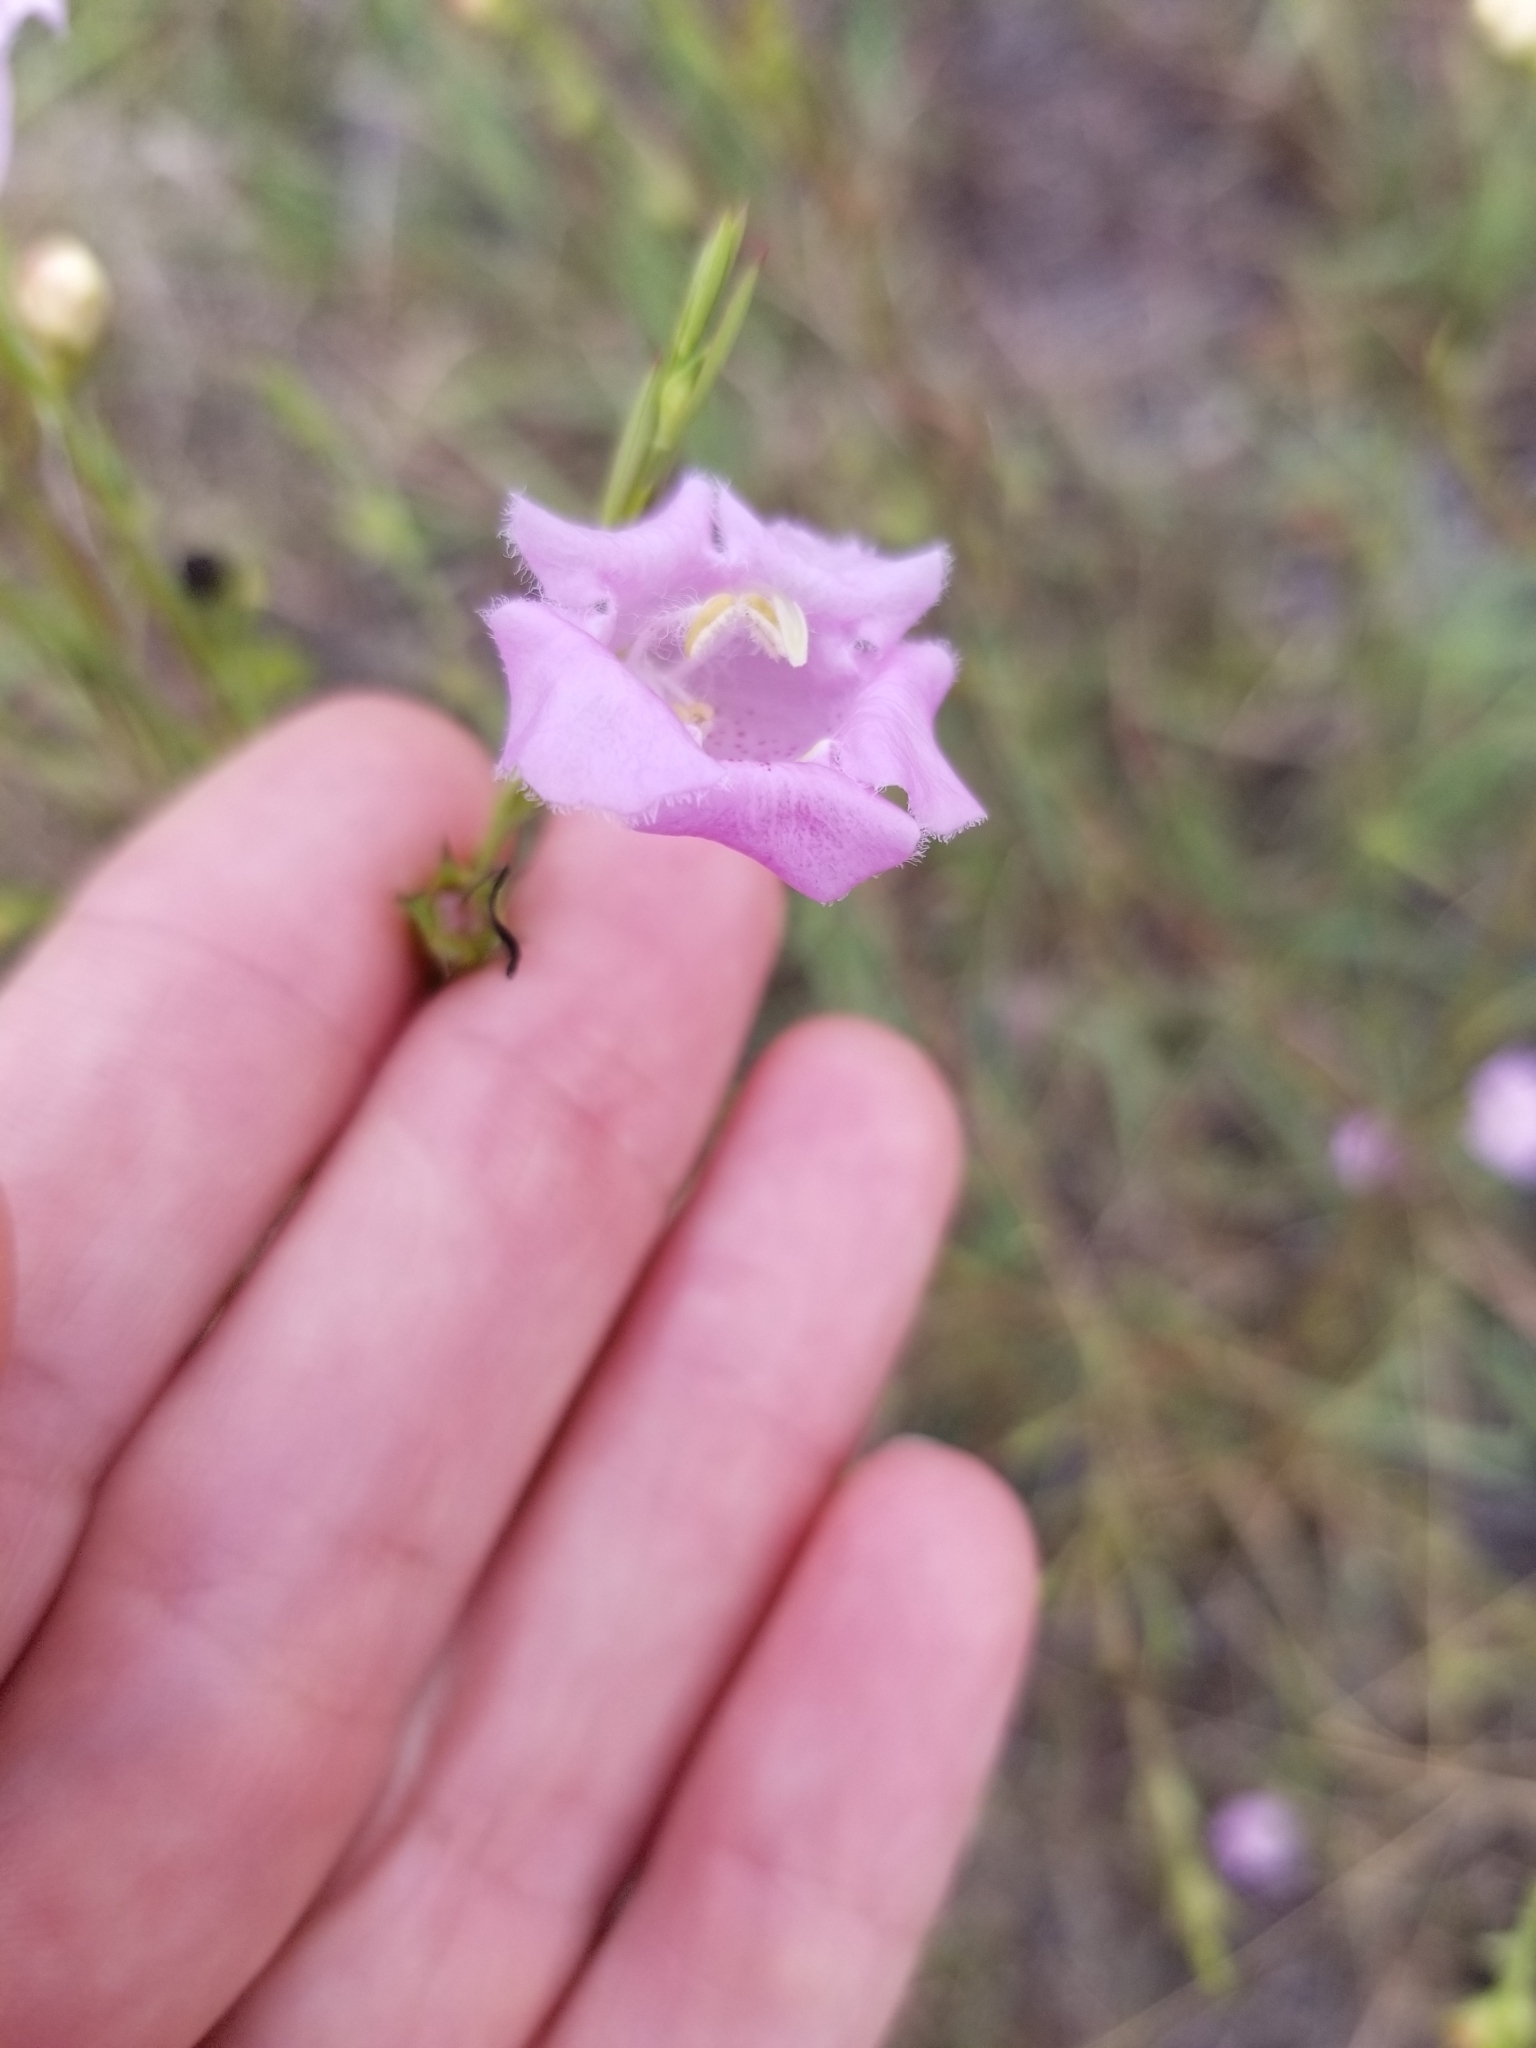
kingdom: Plantae
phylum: Tracheophyta
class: Magnoliopsida
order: Lamiales
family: Orobanchaceae
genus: Agalinis
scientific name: Agalinis heterophylla
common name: Prairie agalinis
